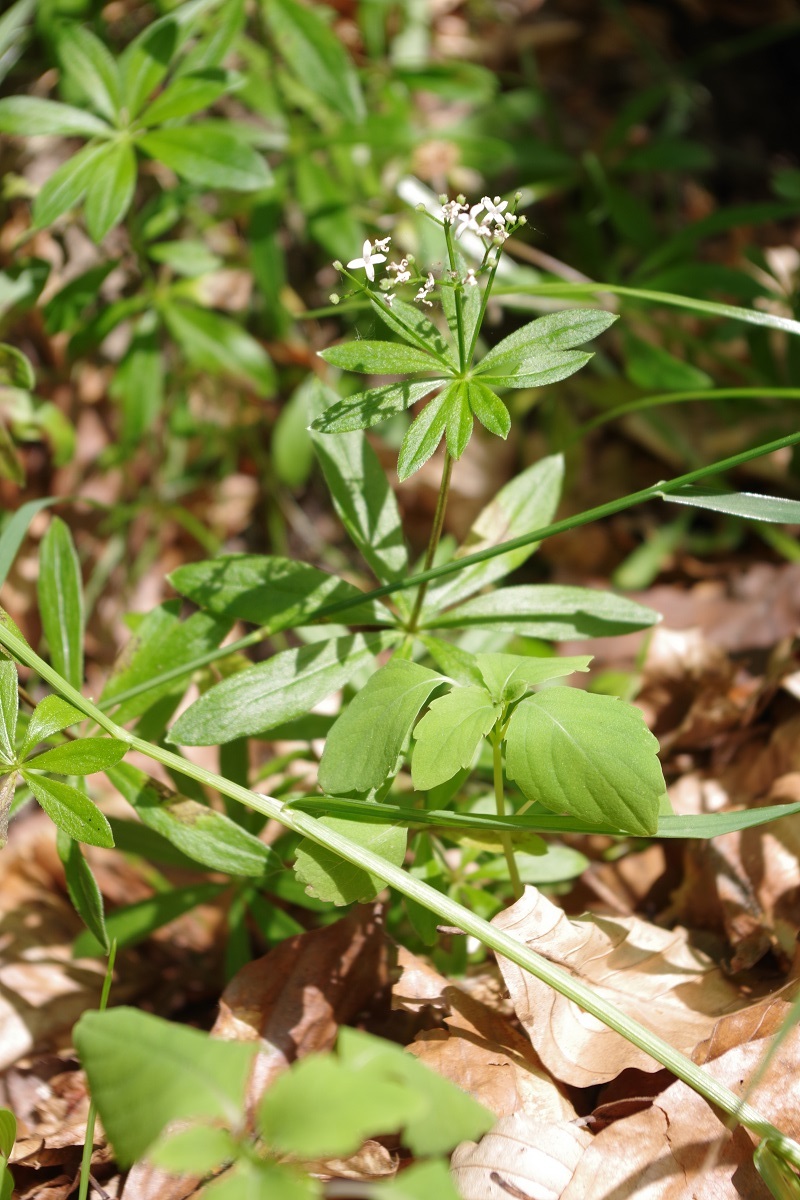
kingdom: Plantae
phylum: Tracheophyta
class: Magnoliopsida
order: Gentianales
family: Rubiaceae
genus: Galium
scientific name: Galium odoratum
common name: Sweet woodruff
